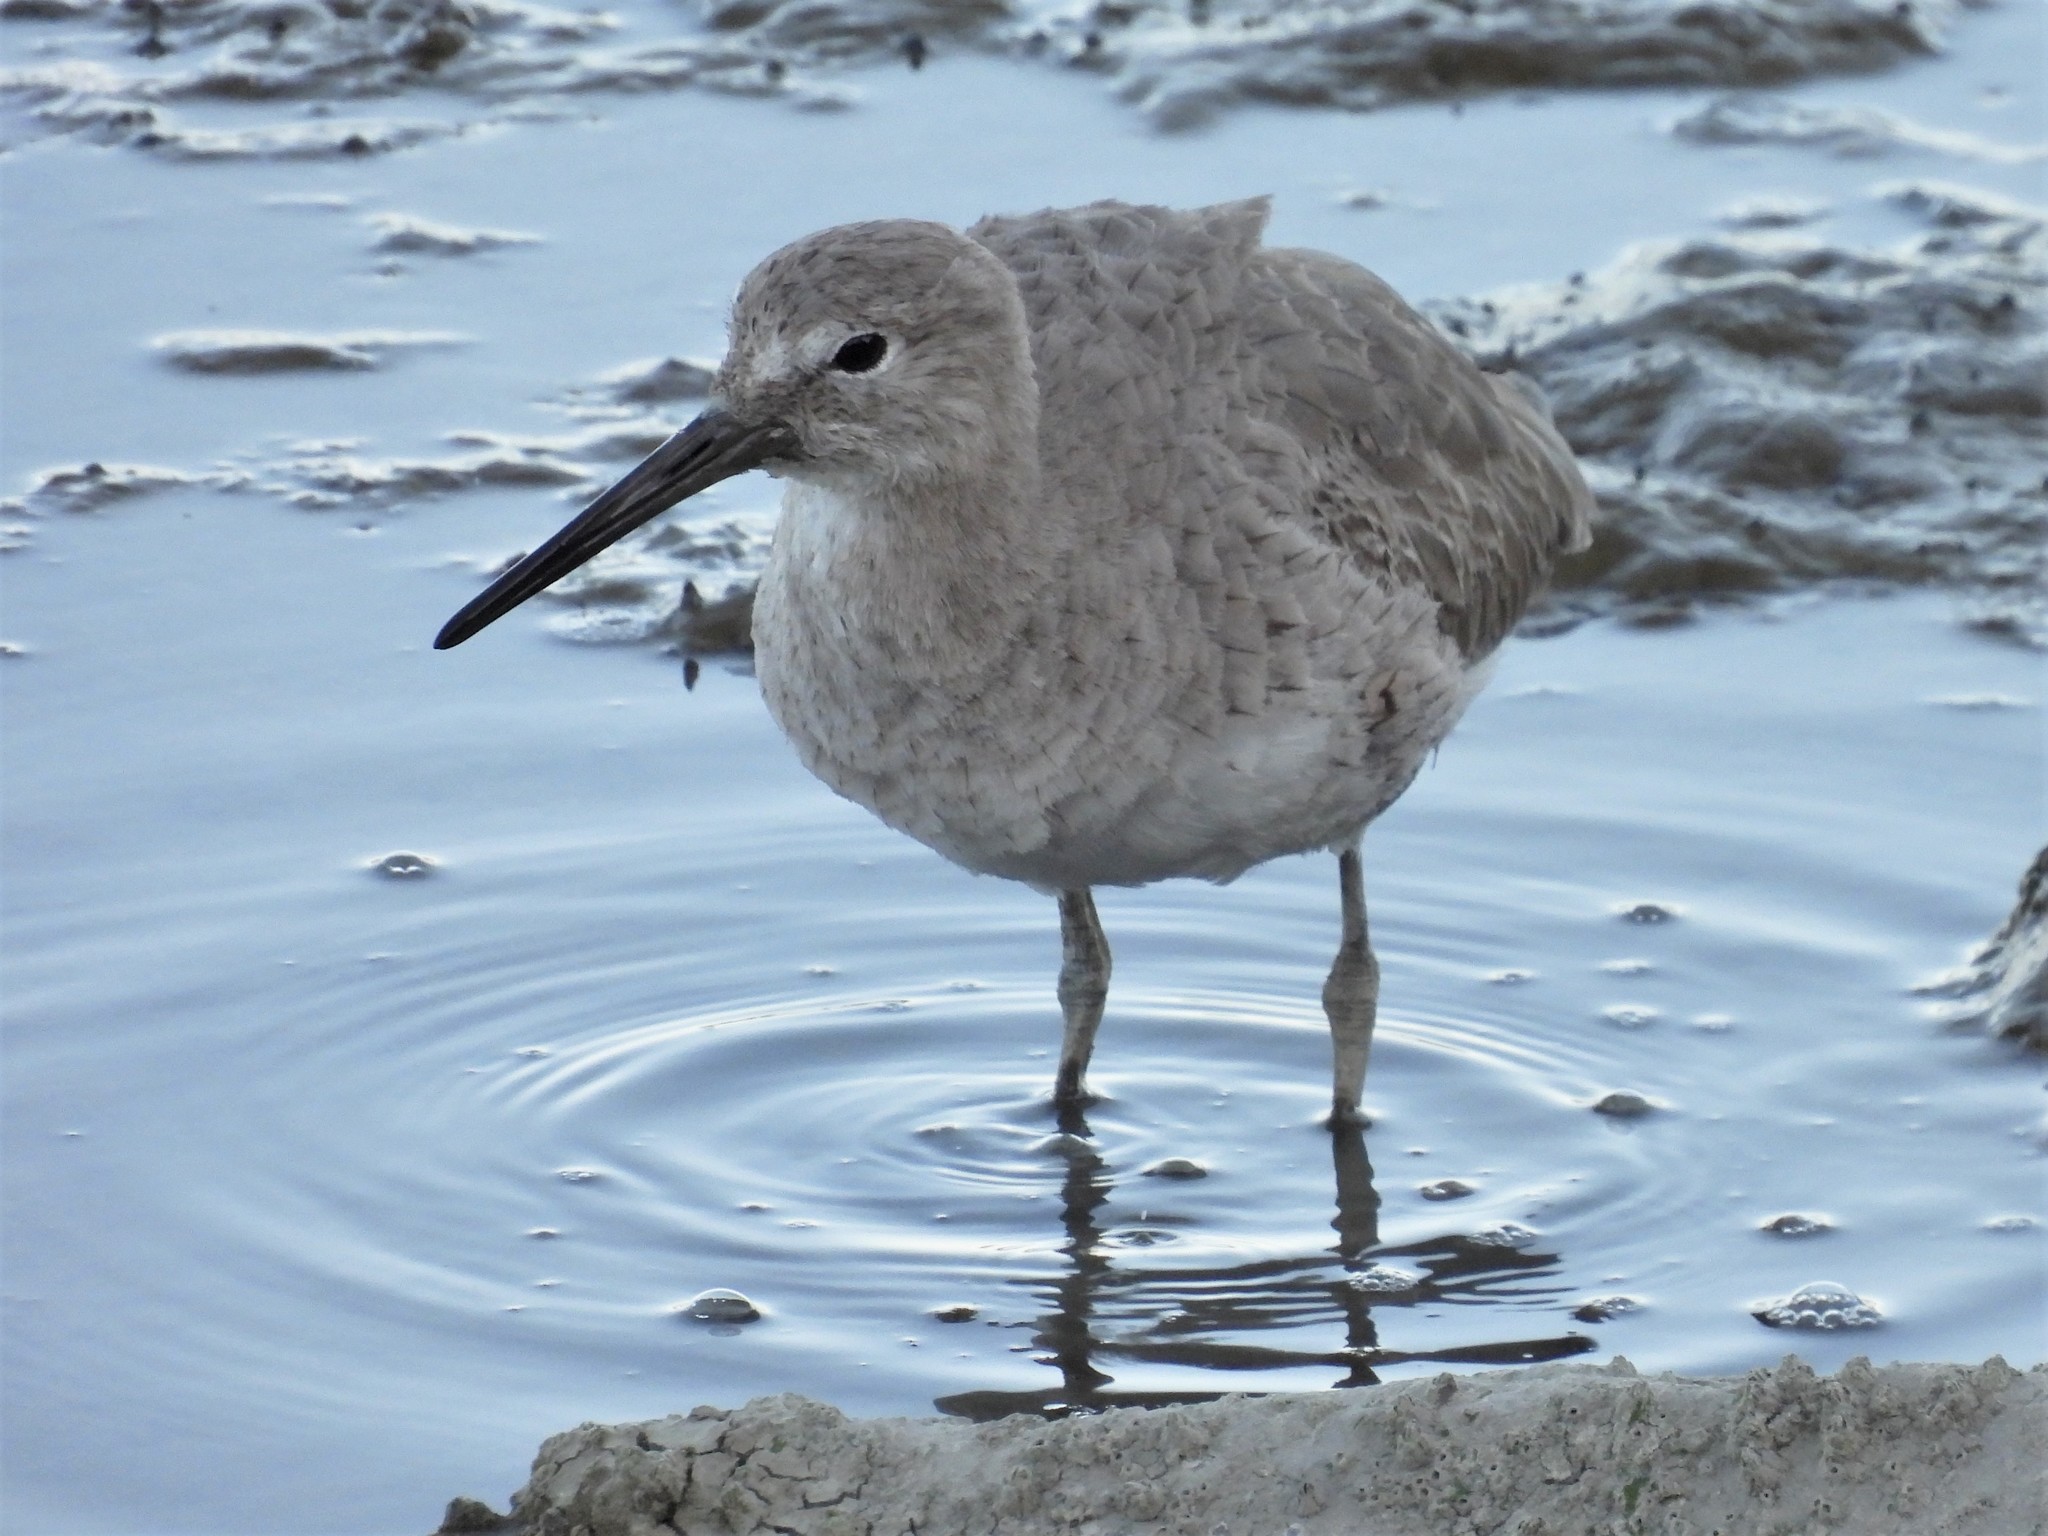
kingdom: Animalia
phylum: Chordata
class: Aves
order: Charadriiformes
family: Scolopacidae
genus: Tringa
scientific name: Tringa semipalmata
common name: Willet
